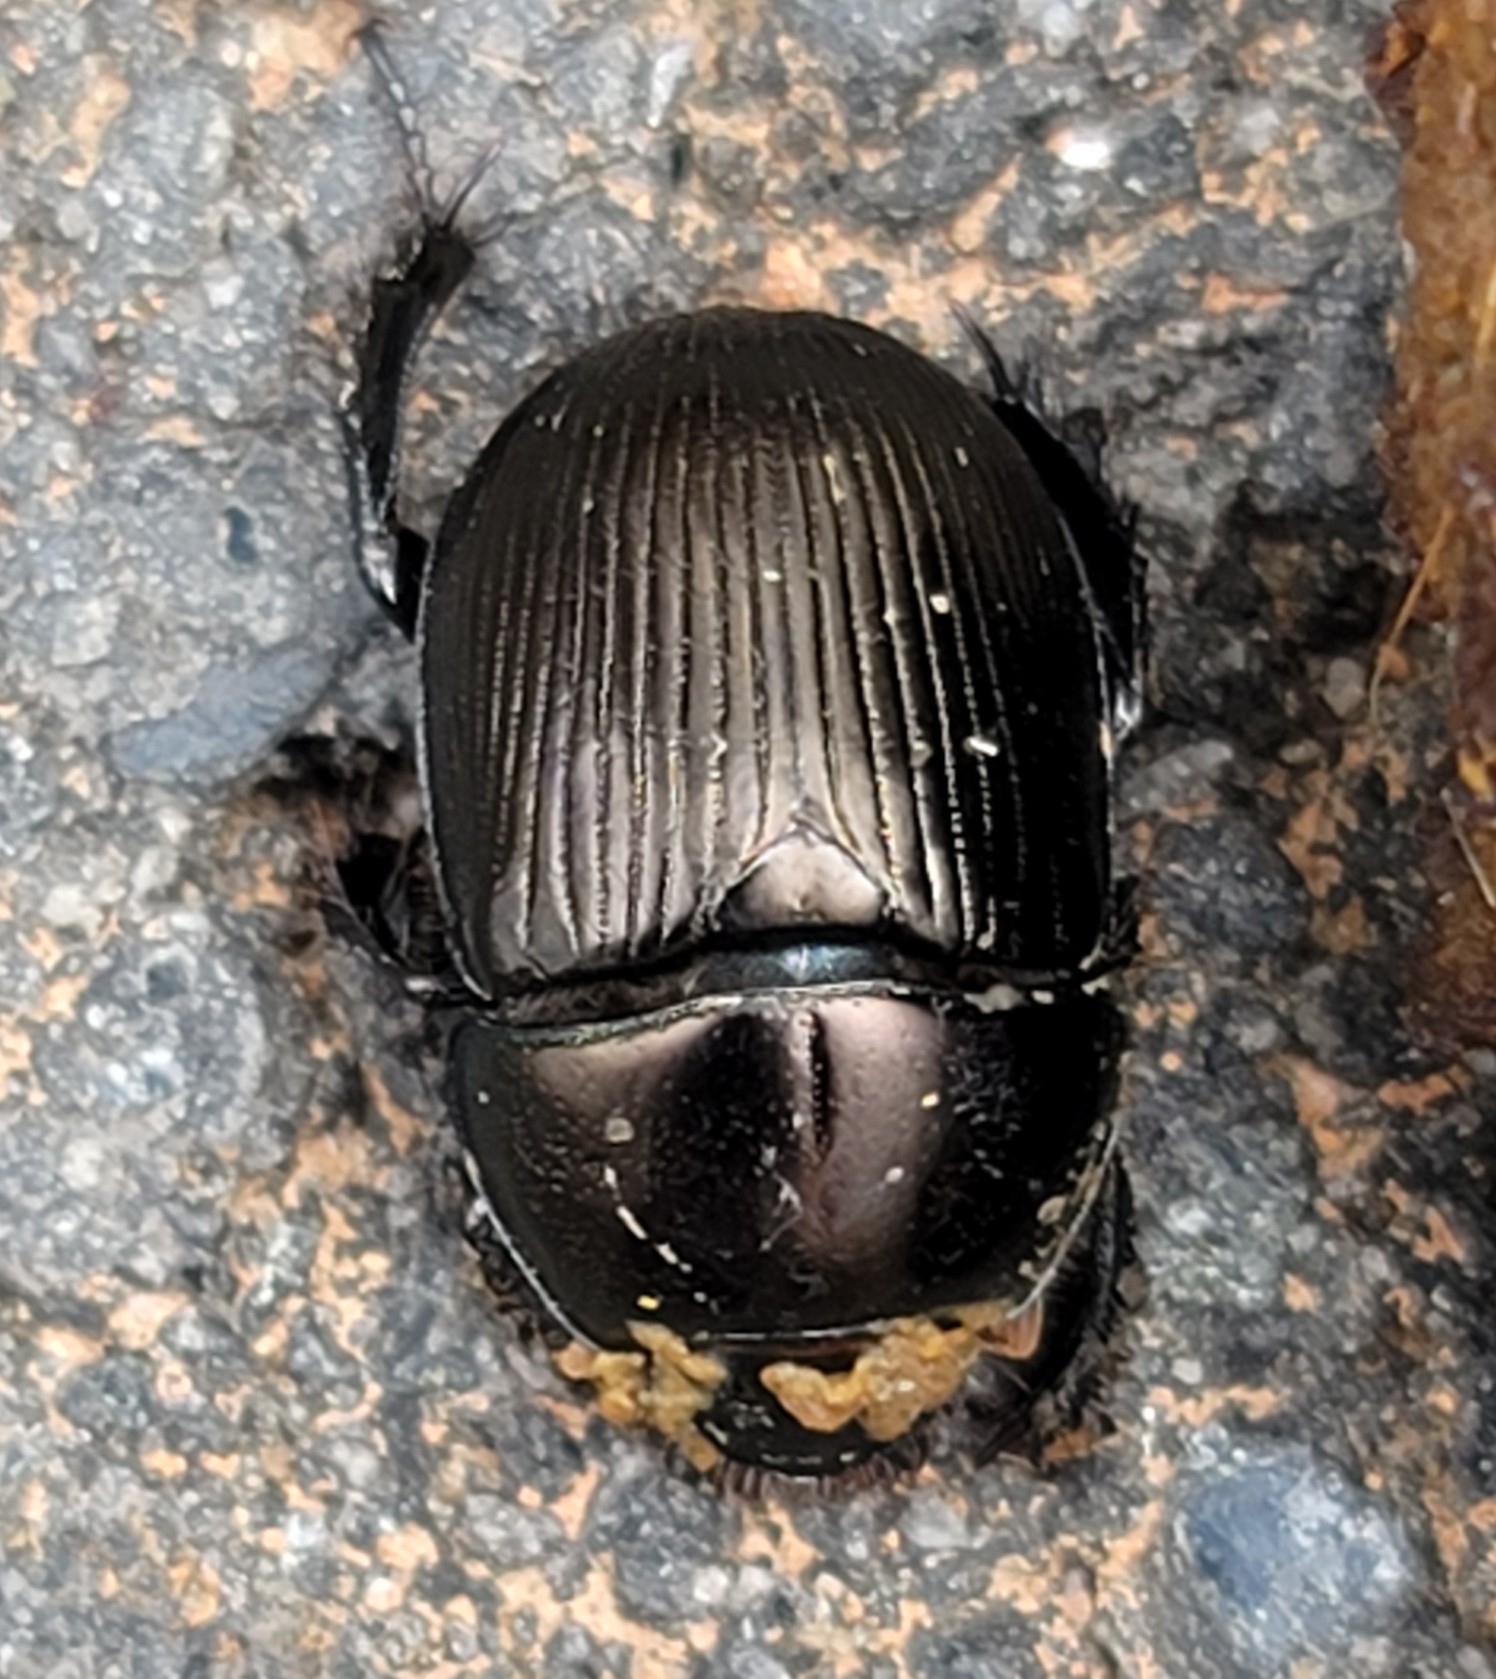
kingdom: Animalia
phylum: Arthropoda
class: Insecta
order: Coleoptera
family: Geotrupidae
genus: Cnemotrupes
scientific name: Cnemotrupes semiopacus
